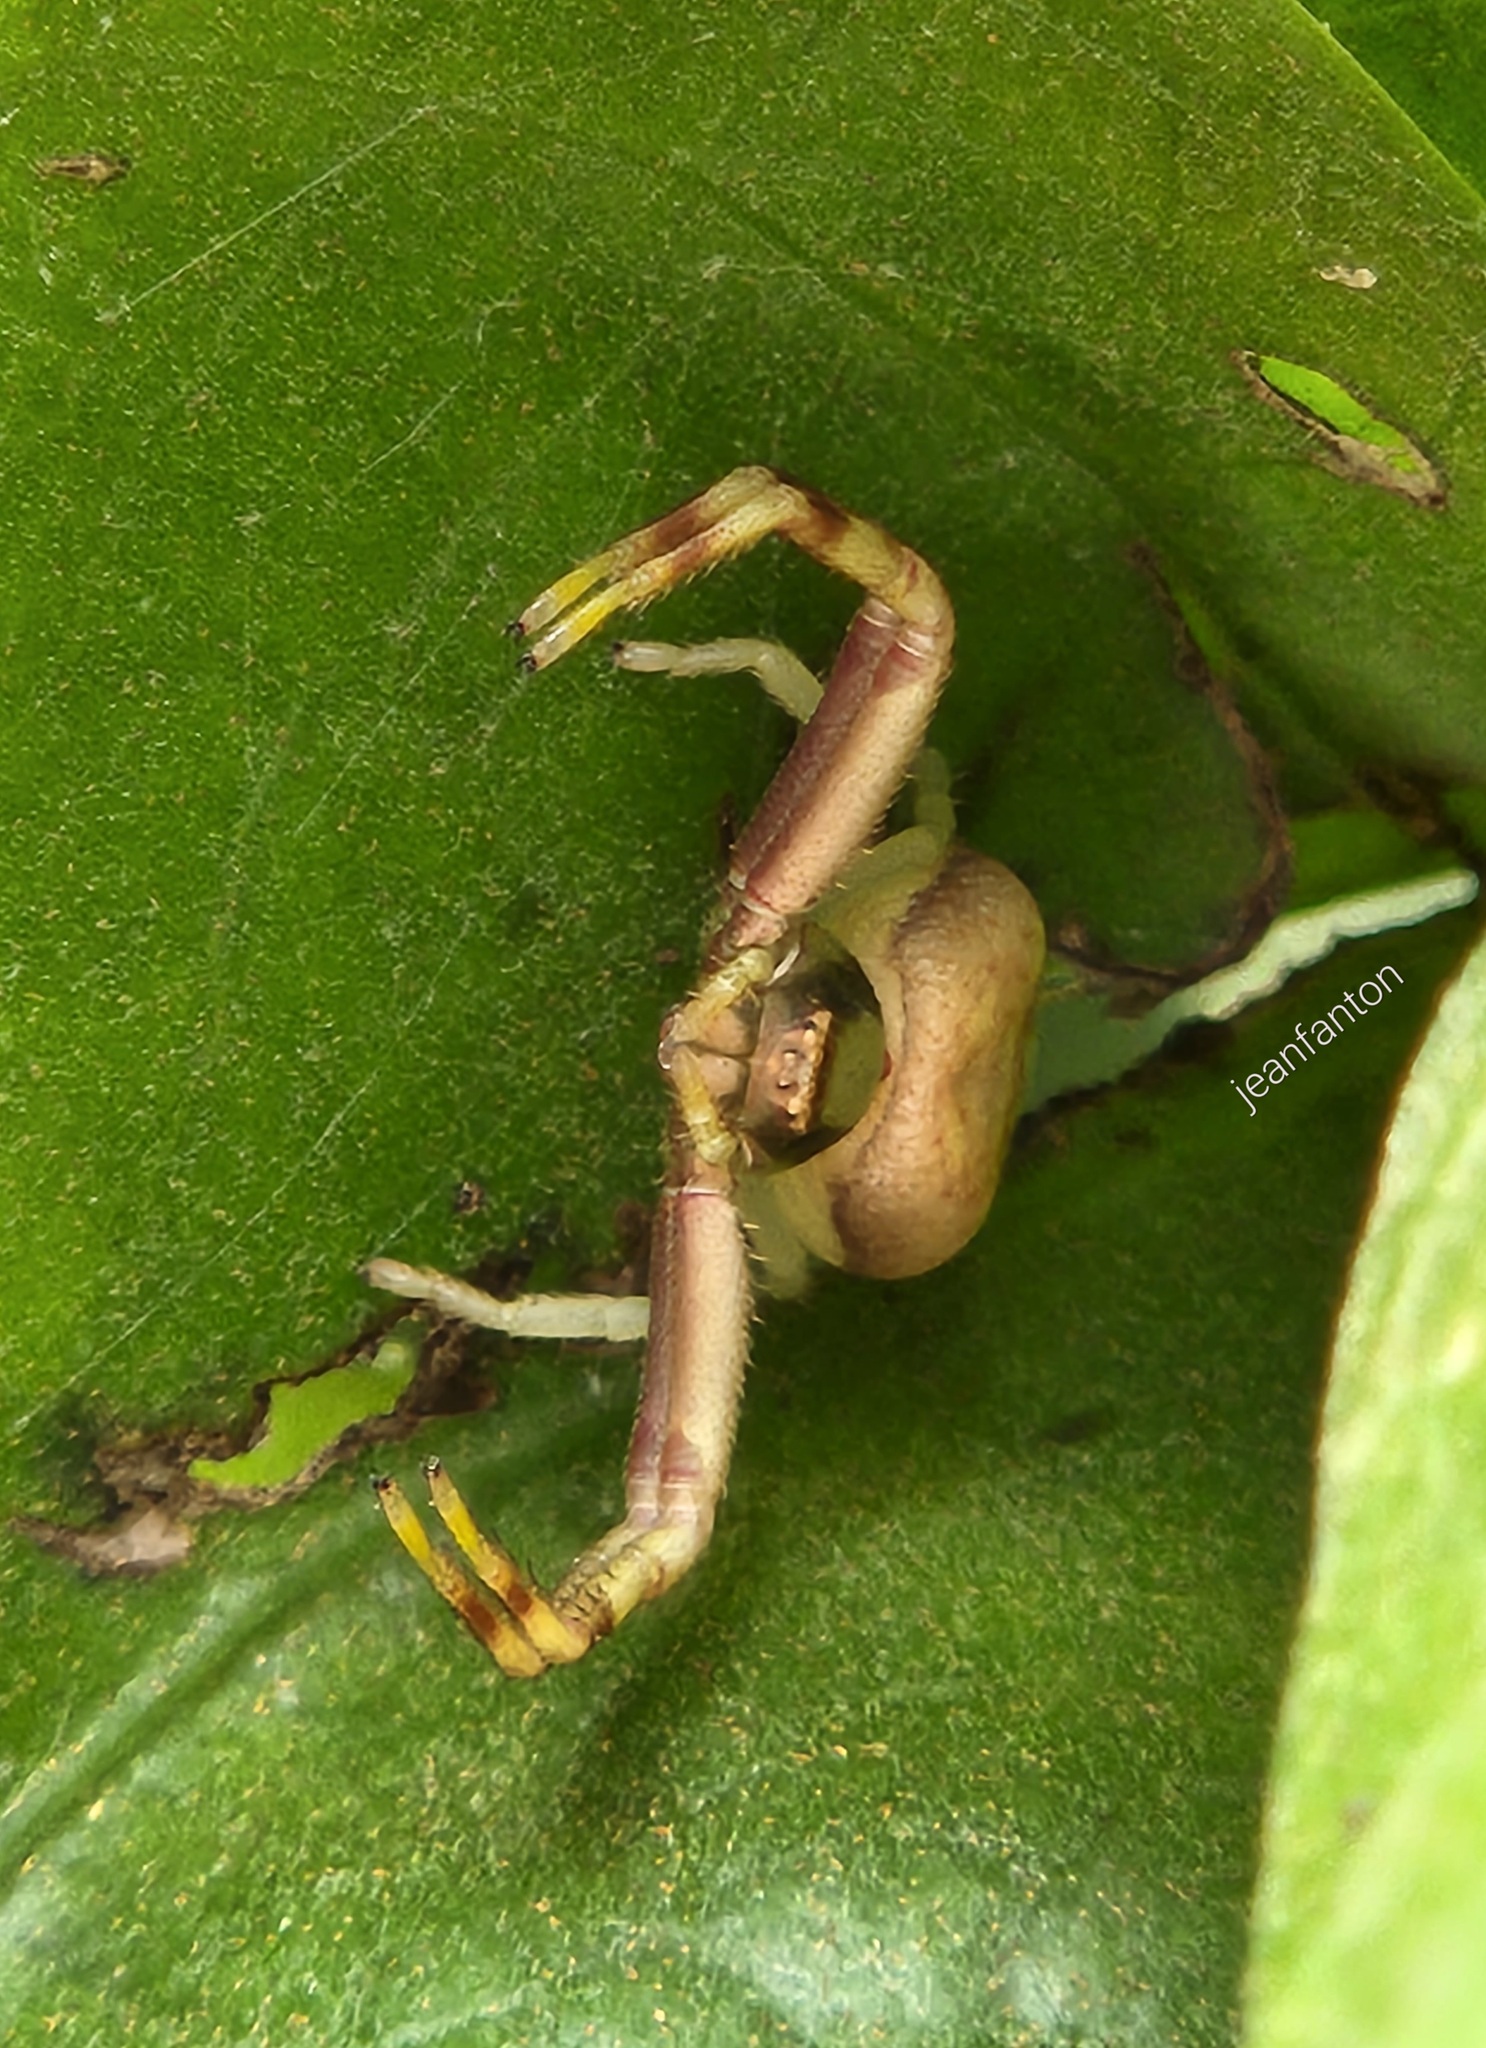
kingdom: Animalia
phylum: Arthropoda
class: Arachnida
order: Araneae
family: Thomisidae
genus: Runcinioides
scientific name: Runcinioides litteratus
